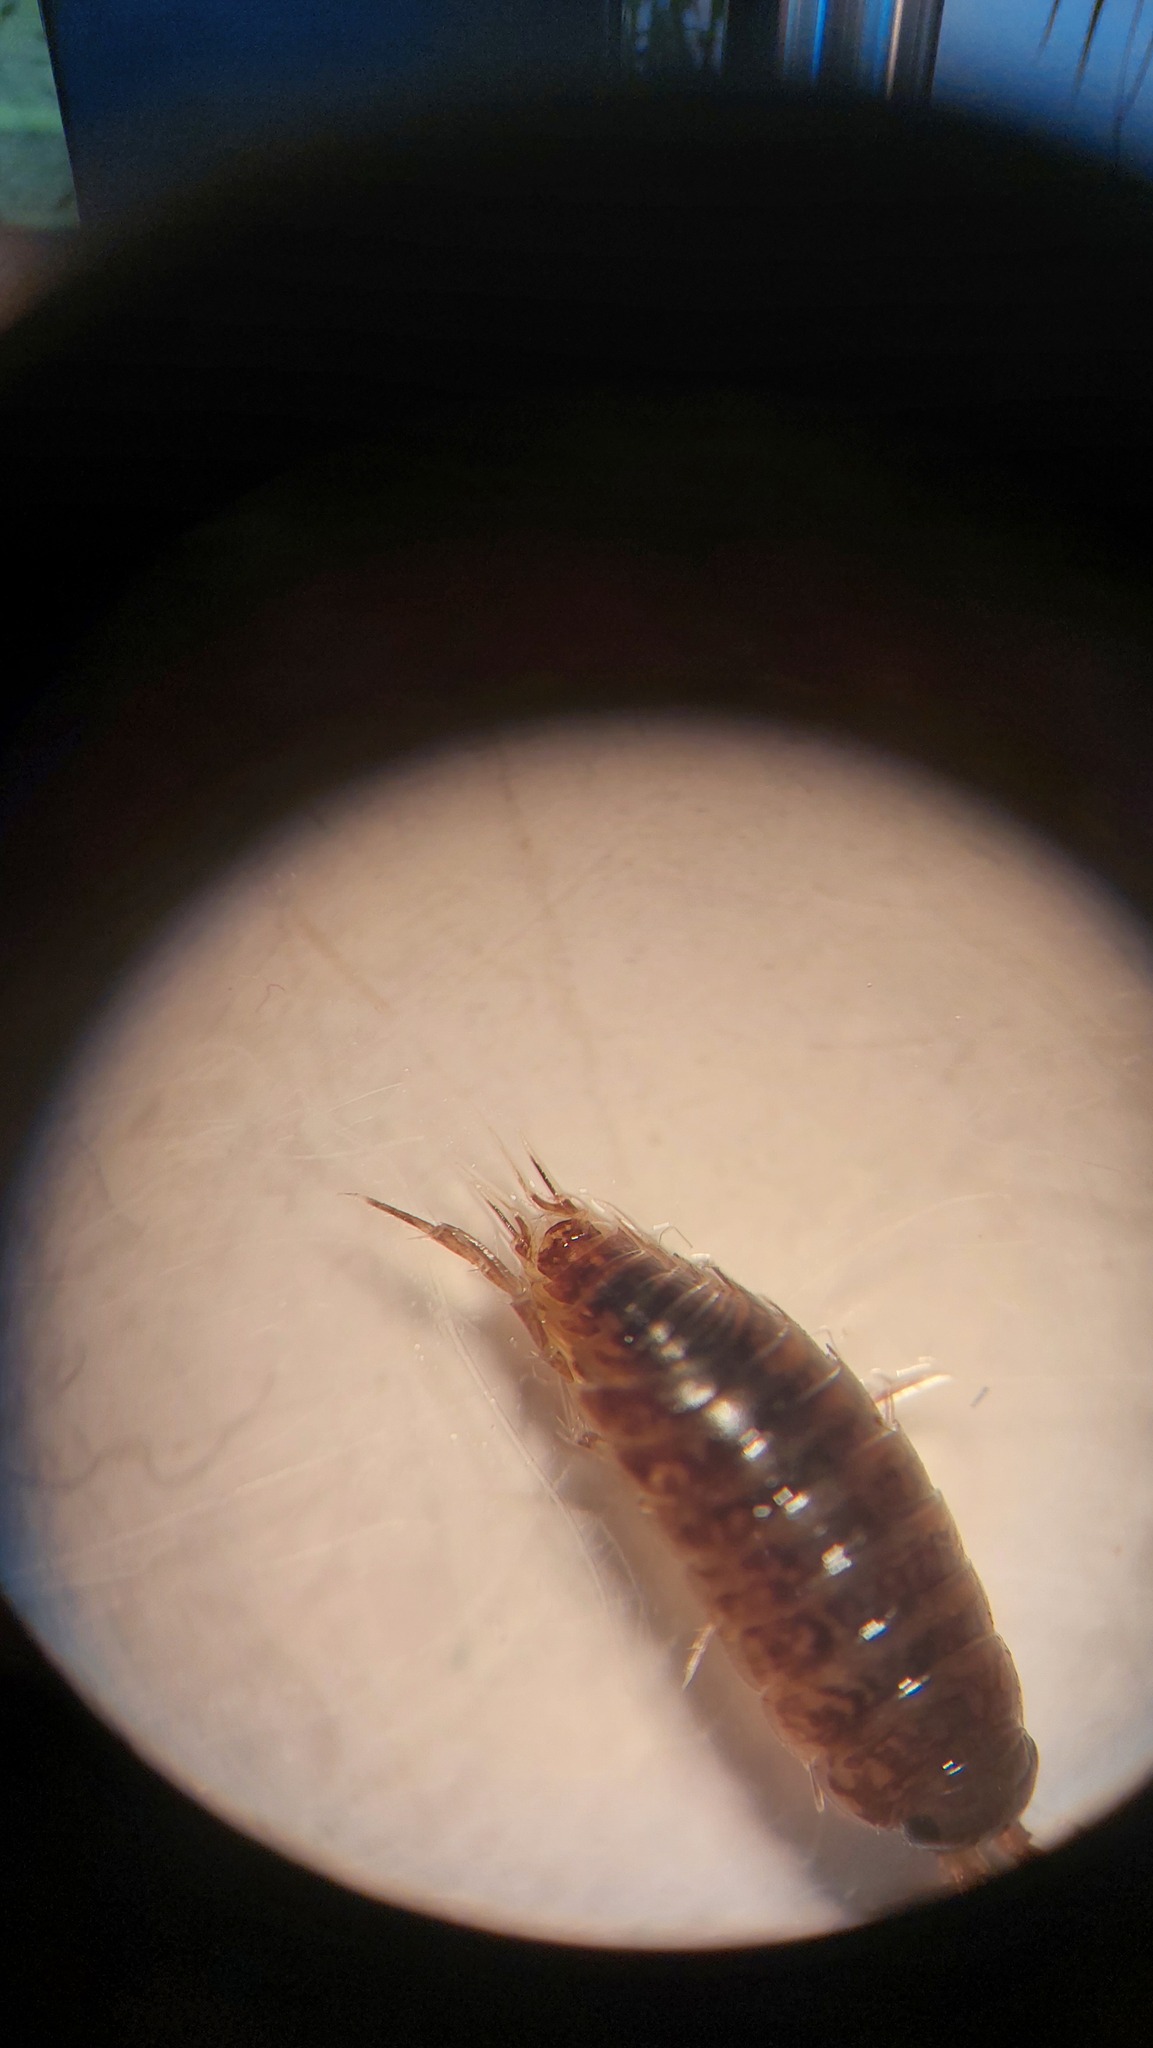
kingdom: Animalia
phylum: Arthropoda
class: Malacostraca
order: Isopoda
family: Ligiidae
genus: Ligidium
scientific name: Ligidium hypnorum
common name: Moss slater
